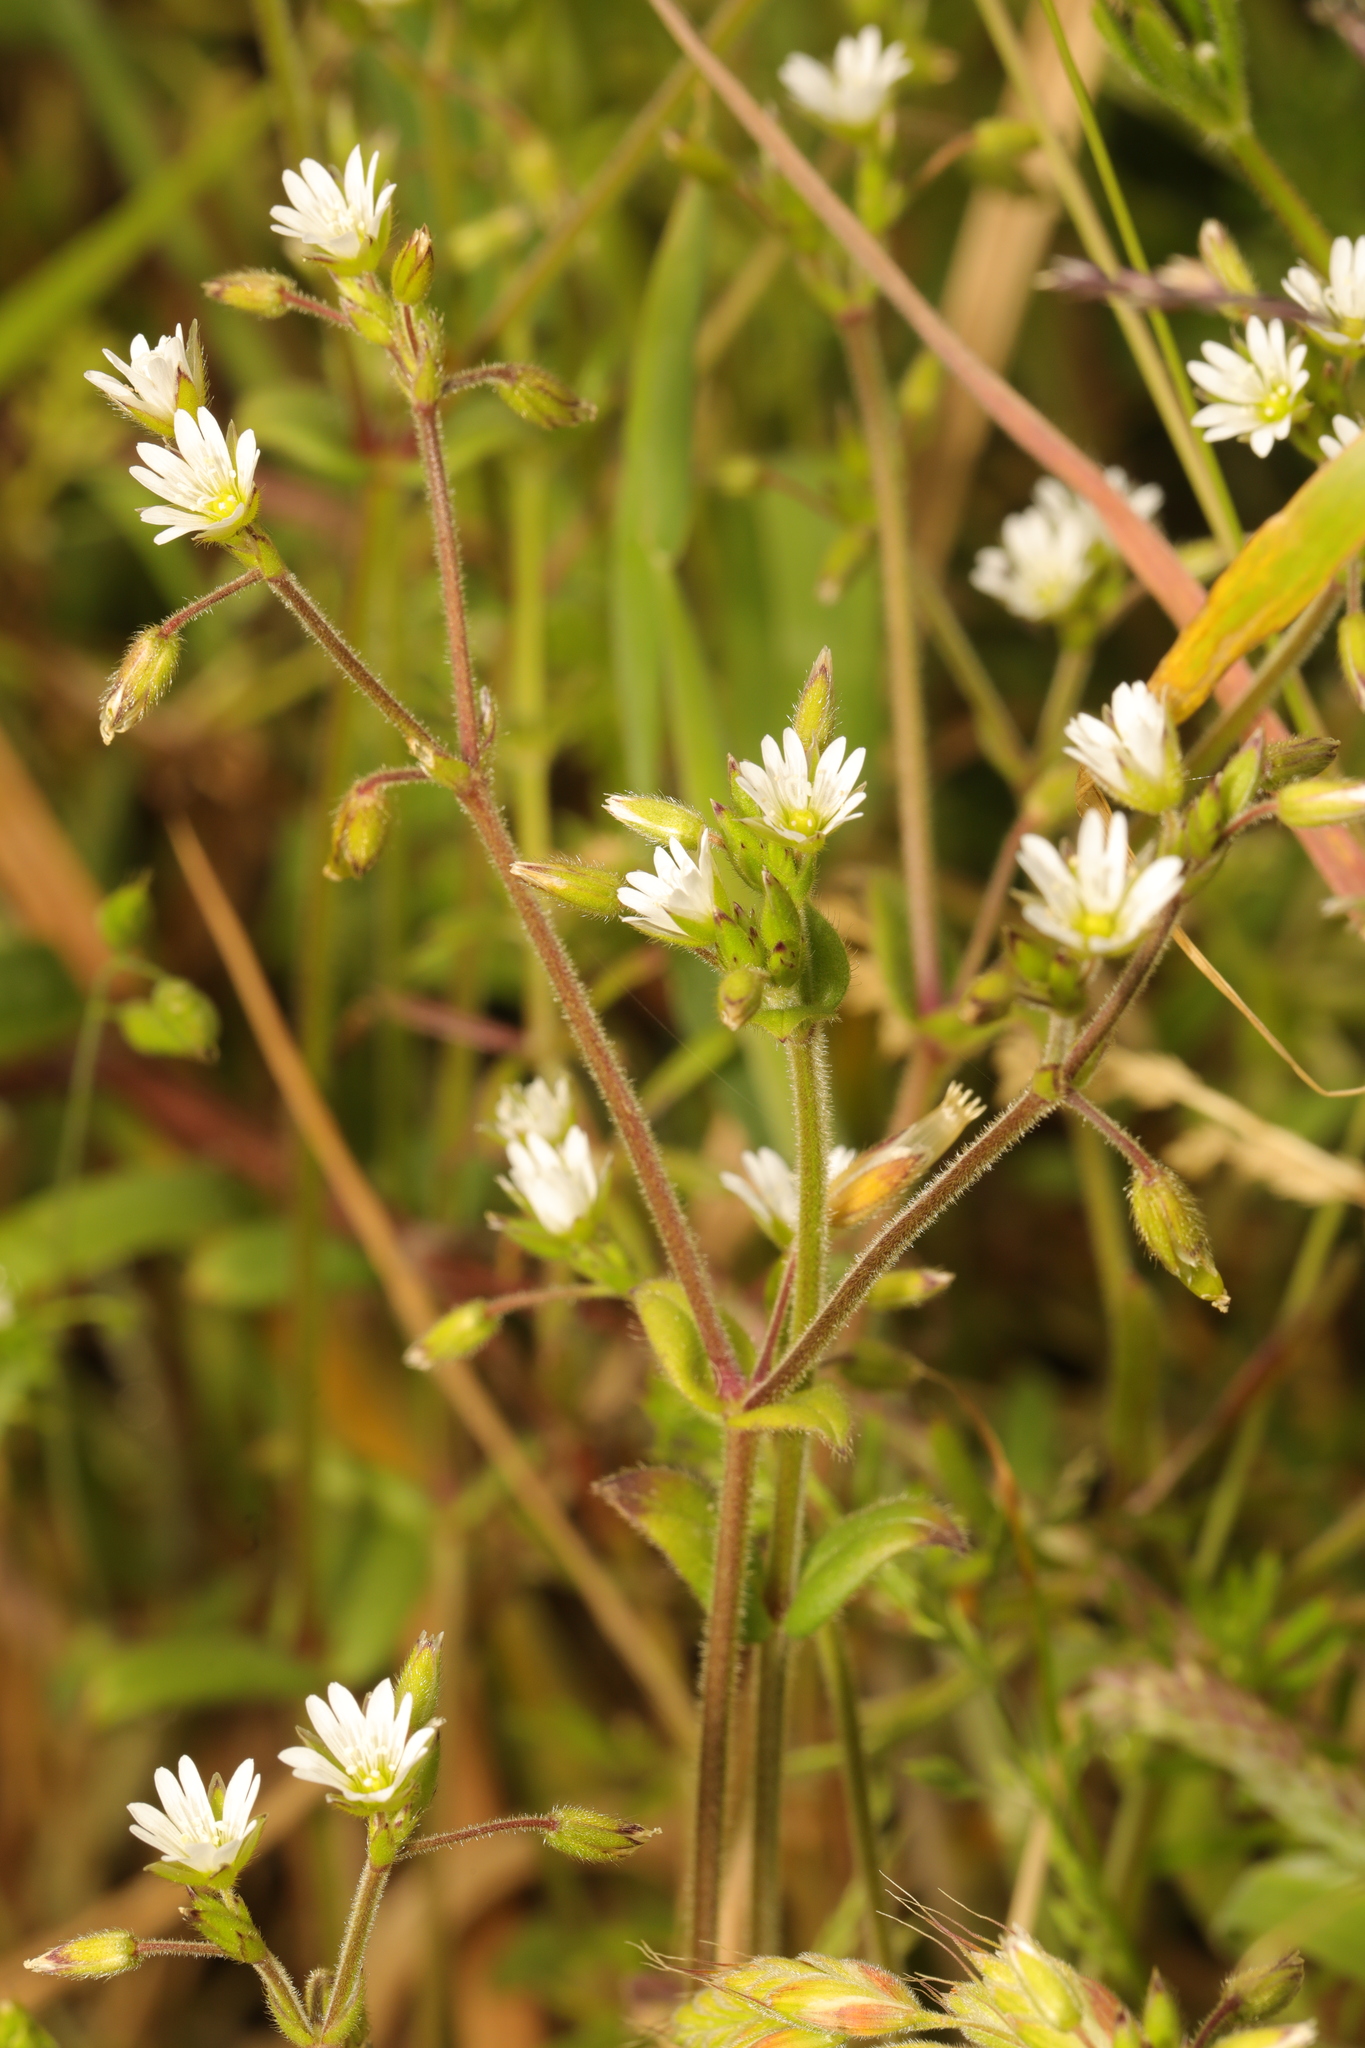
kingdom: Plantae
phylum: Tracheophyta
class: Magnoliopsida
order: Caryophyllales
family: Caryophyllaceae
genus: Cerastium
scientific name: Cerastium fontanum
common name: Common mouse-ear
